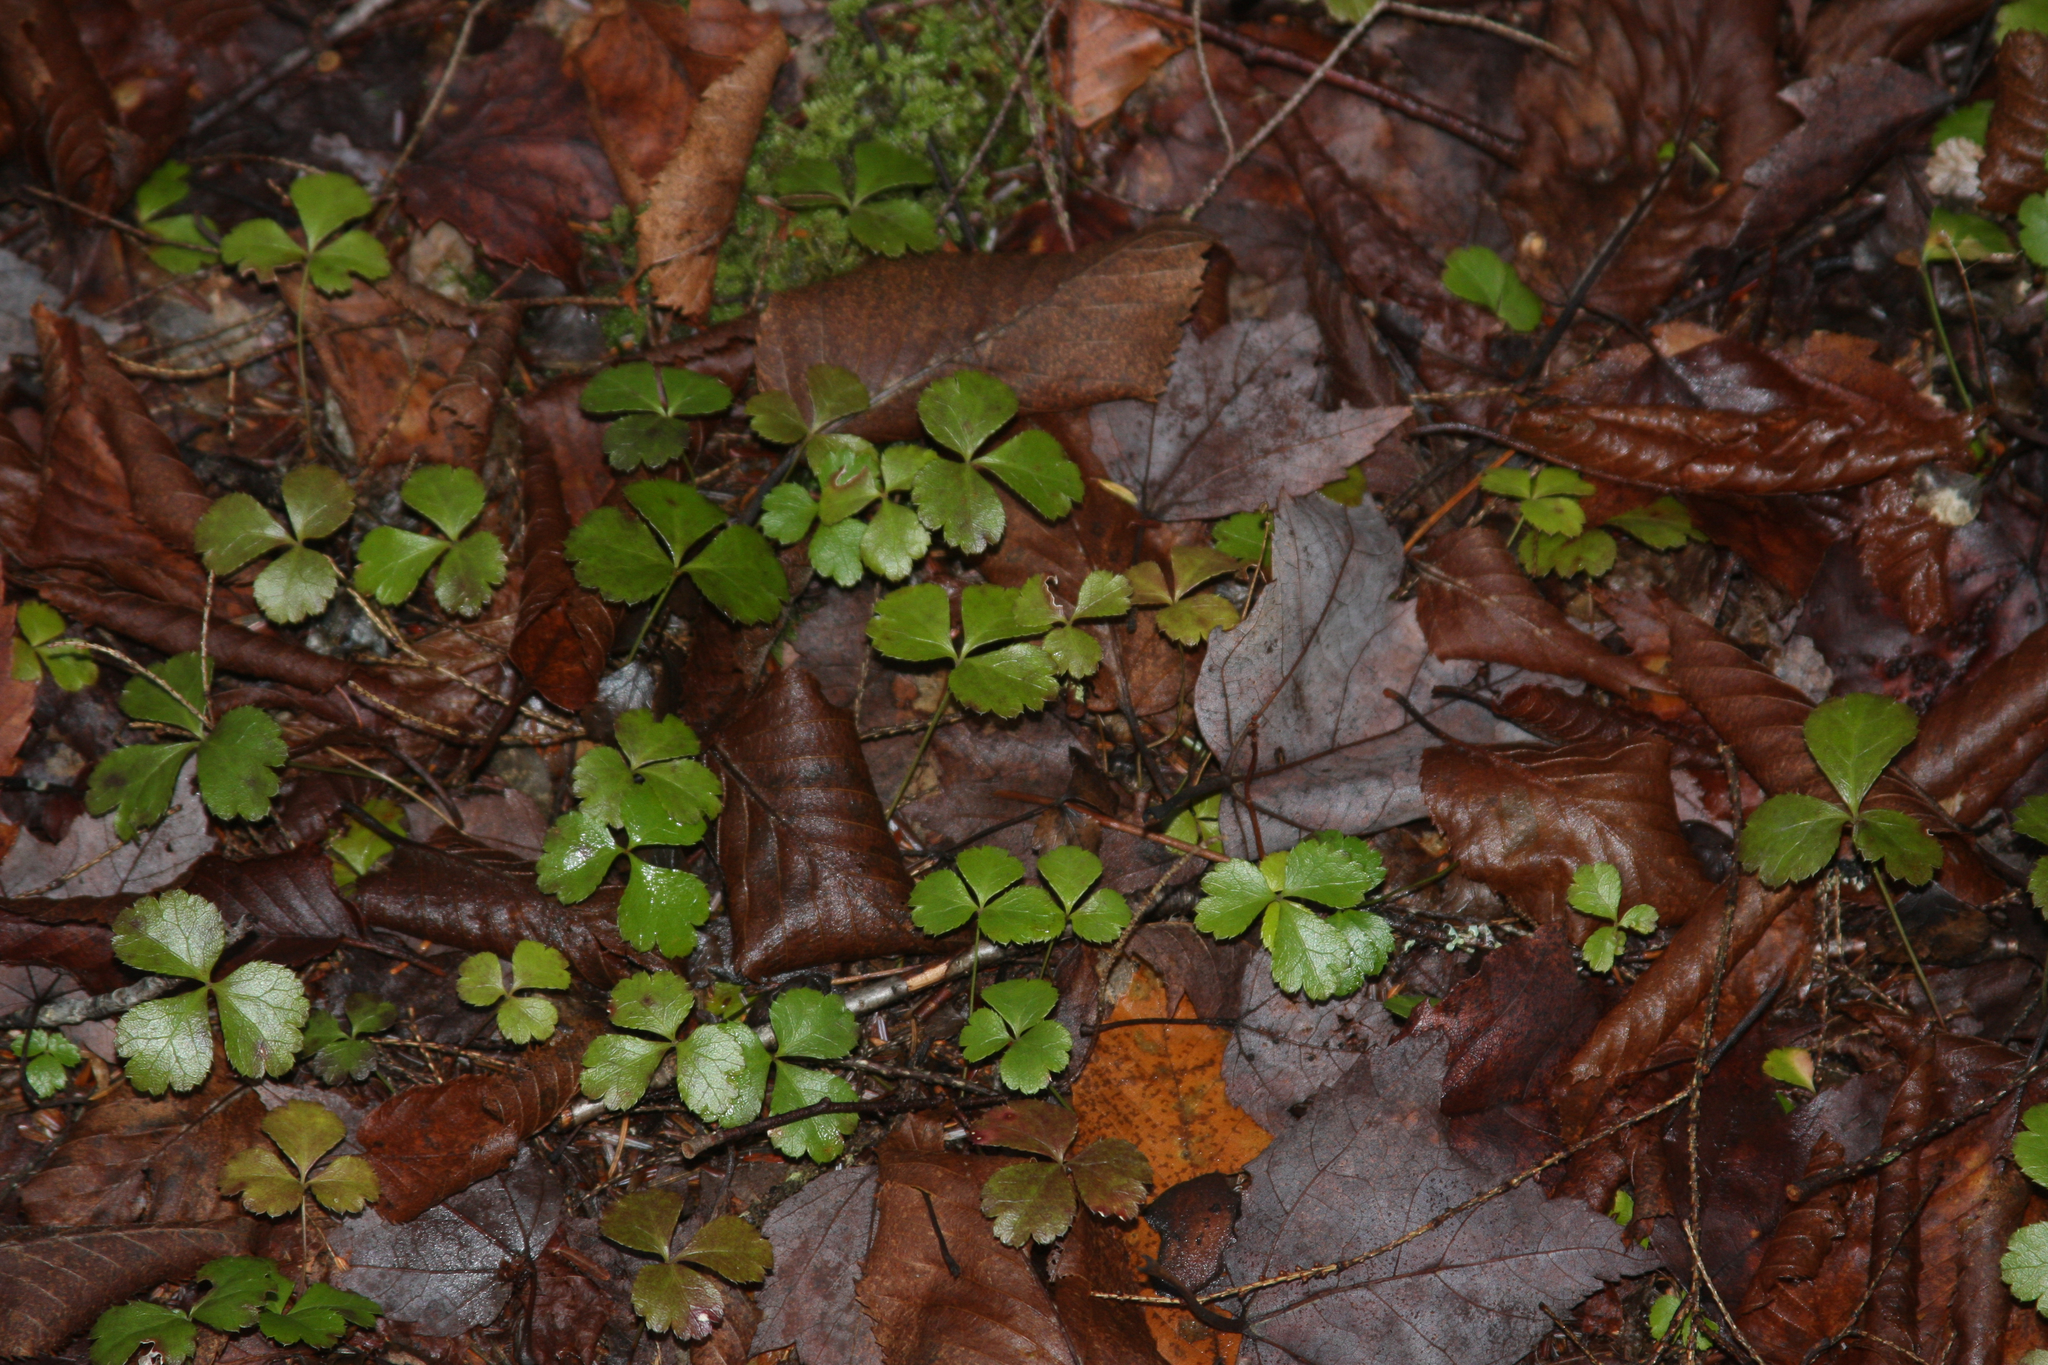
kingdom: Plantae
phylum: Tracheophyta
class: Magnoliopsida
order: Ranunculales
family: Ranunculaceae
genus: Coptis
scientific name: Coptis trifolia
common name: Canker-root
